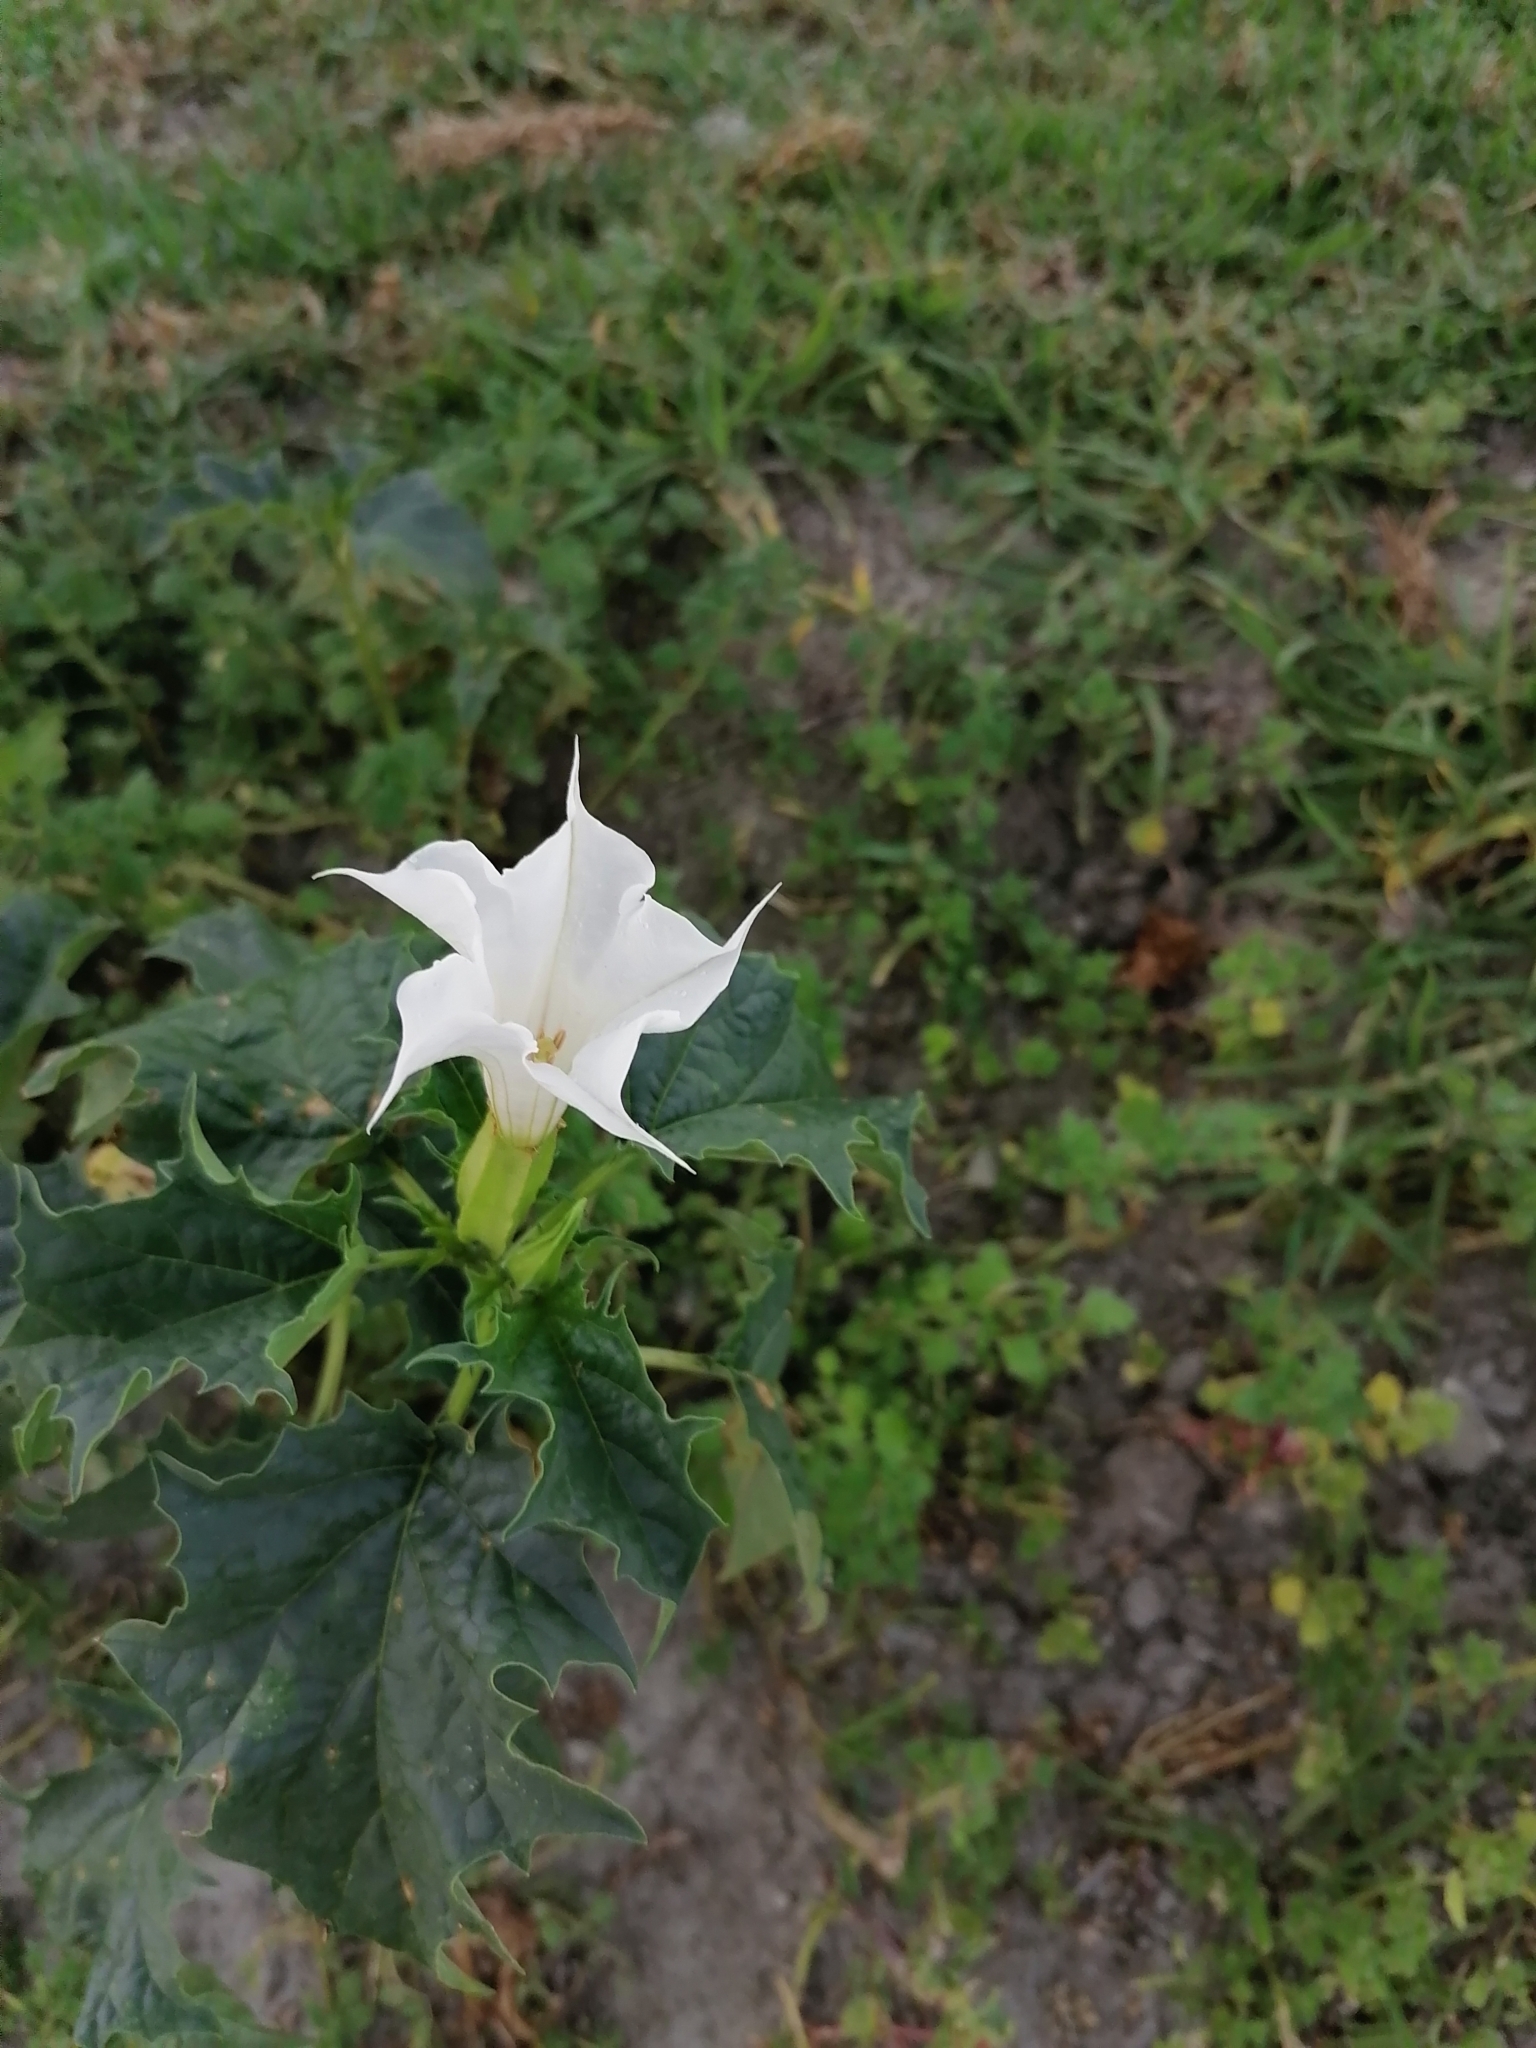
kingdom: Plantae
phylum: Tracheophyta
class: Magnoliopsida
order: Solanales
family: Solanaceae
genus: Datura
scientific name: Datura stramonium
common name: Thorn-apple
